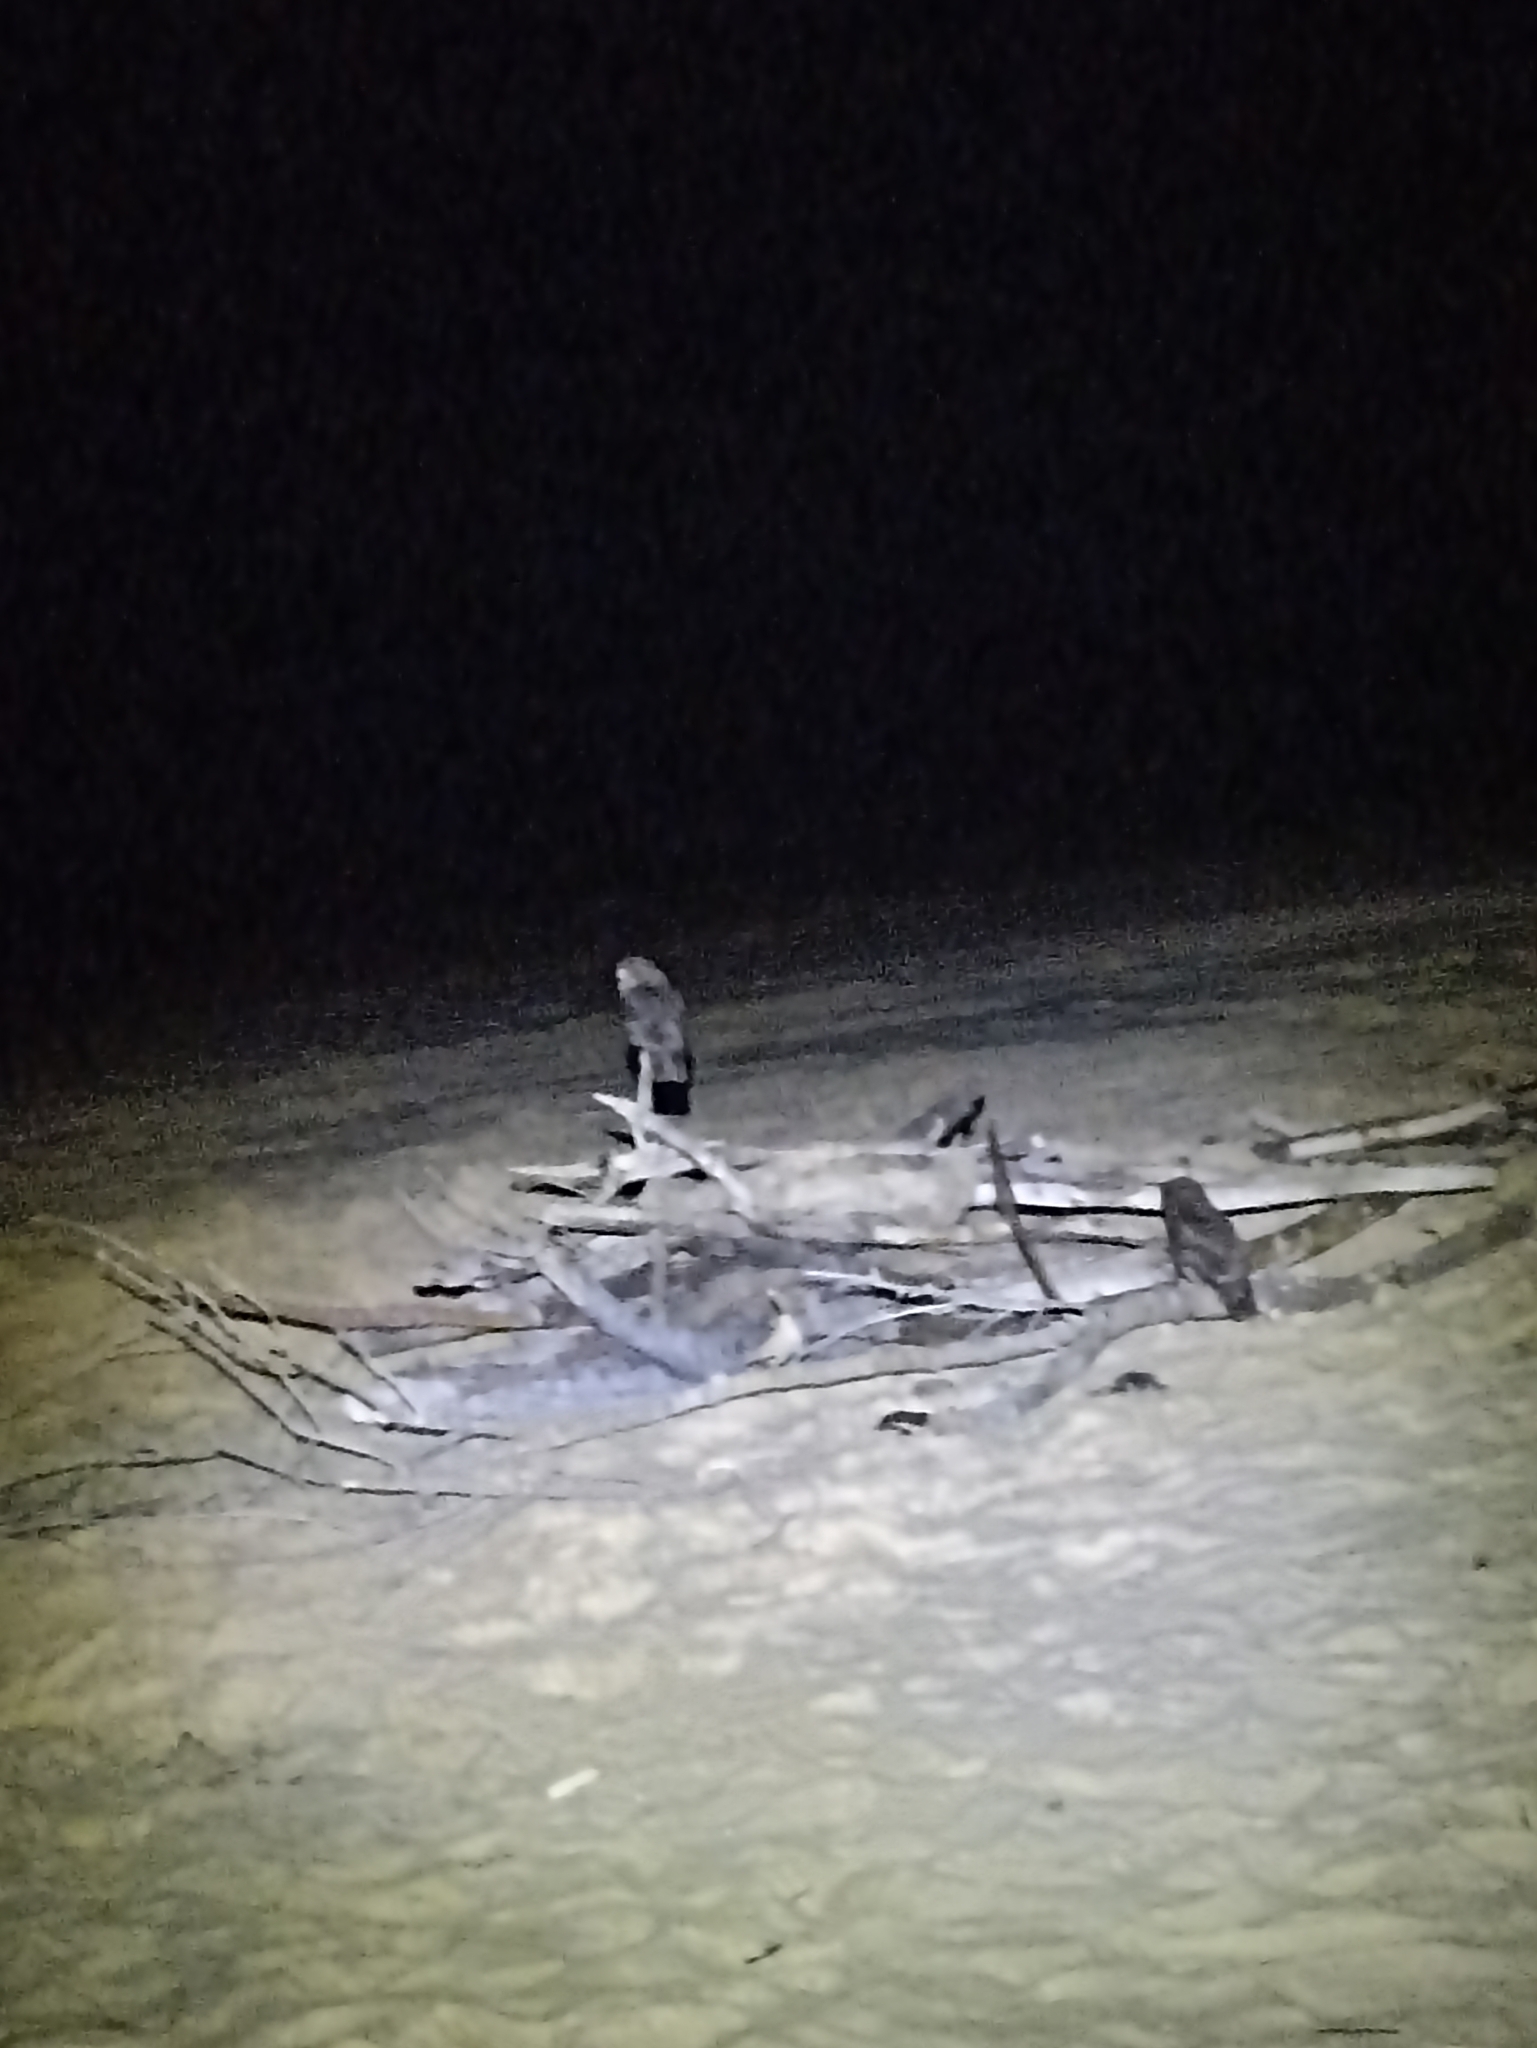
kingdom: Animalia
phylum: Chordata
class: Aves
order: Strigiformes
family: Strigidae
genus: Ninox
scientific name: Ninox novaeseelandiae
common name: Morepork
